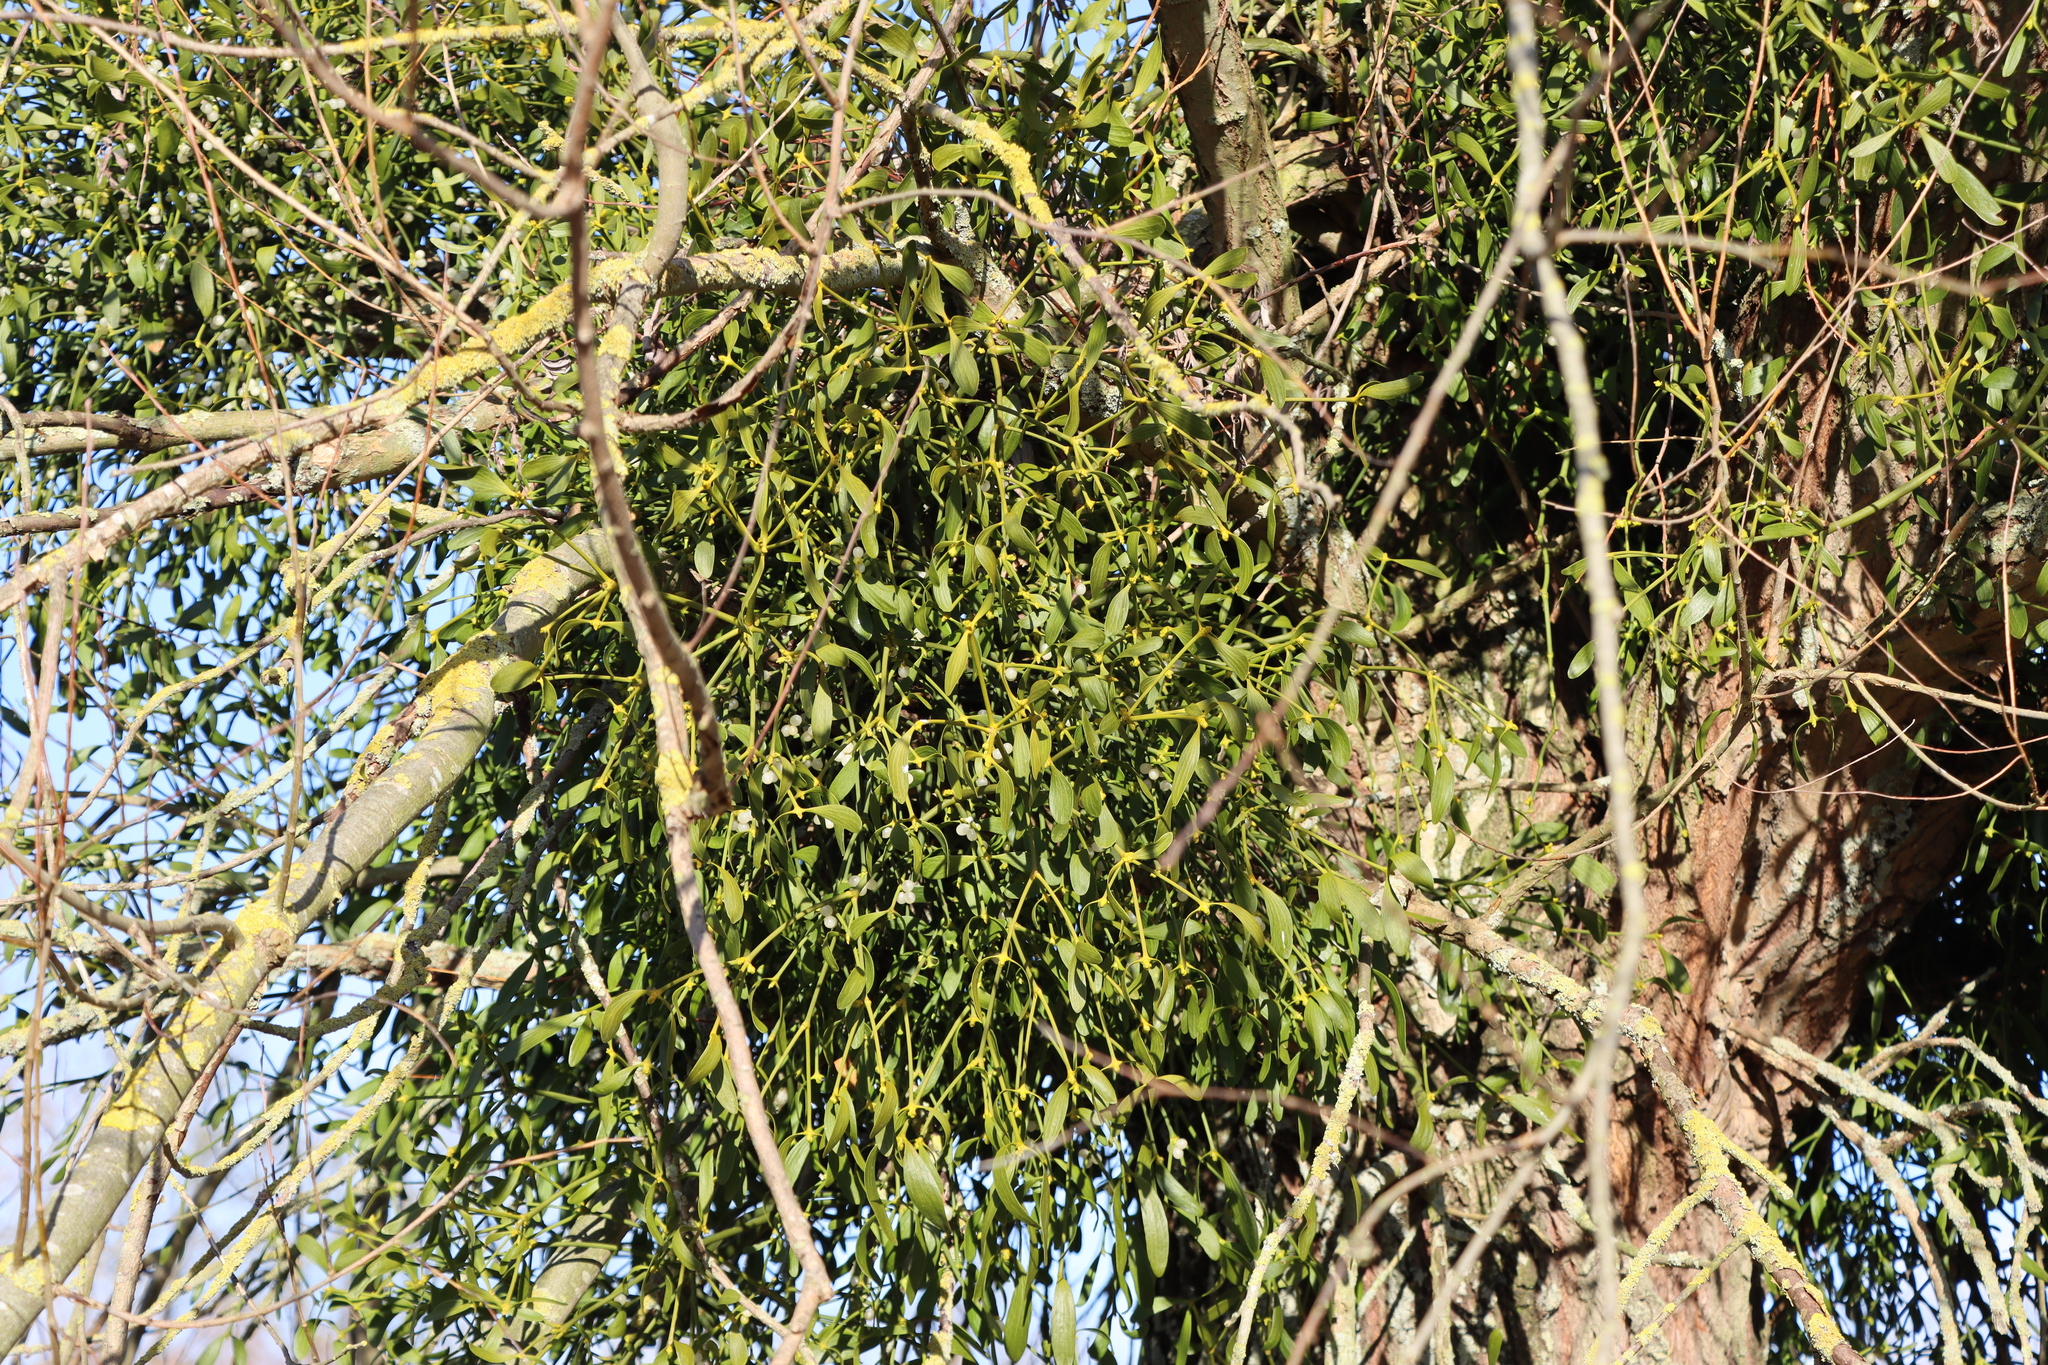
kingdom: Plantae
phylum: Tracheophyta
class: Magnoliopsida
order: Santalales
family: Viscaceae
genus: Viscum
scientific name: Viscum album
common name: Mistletoe
